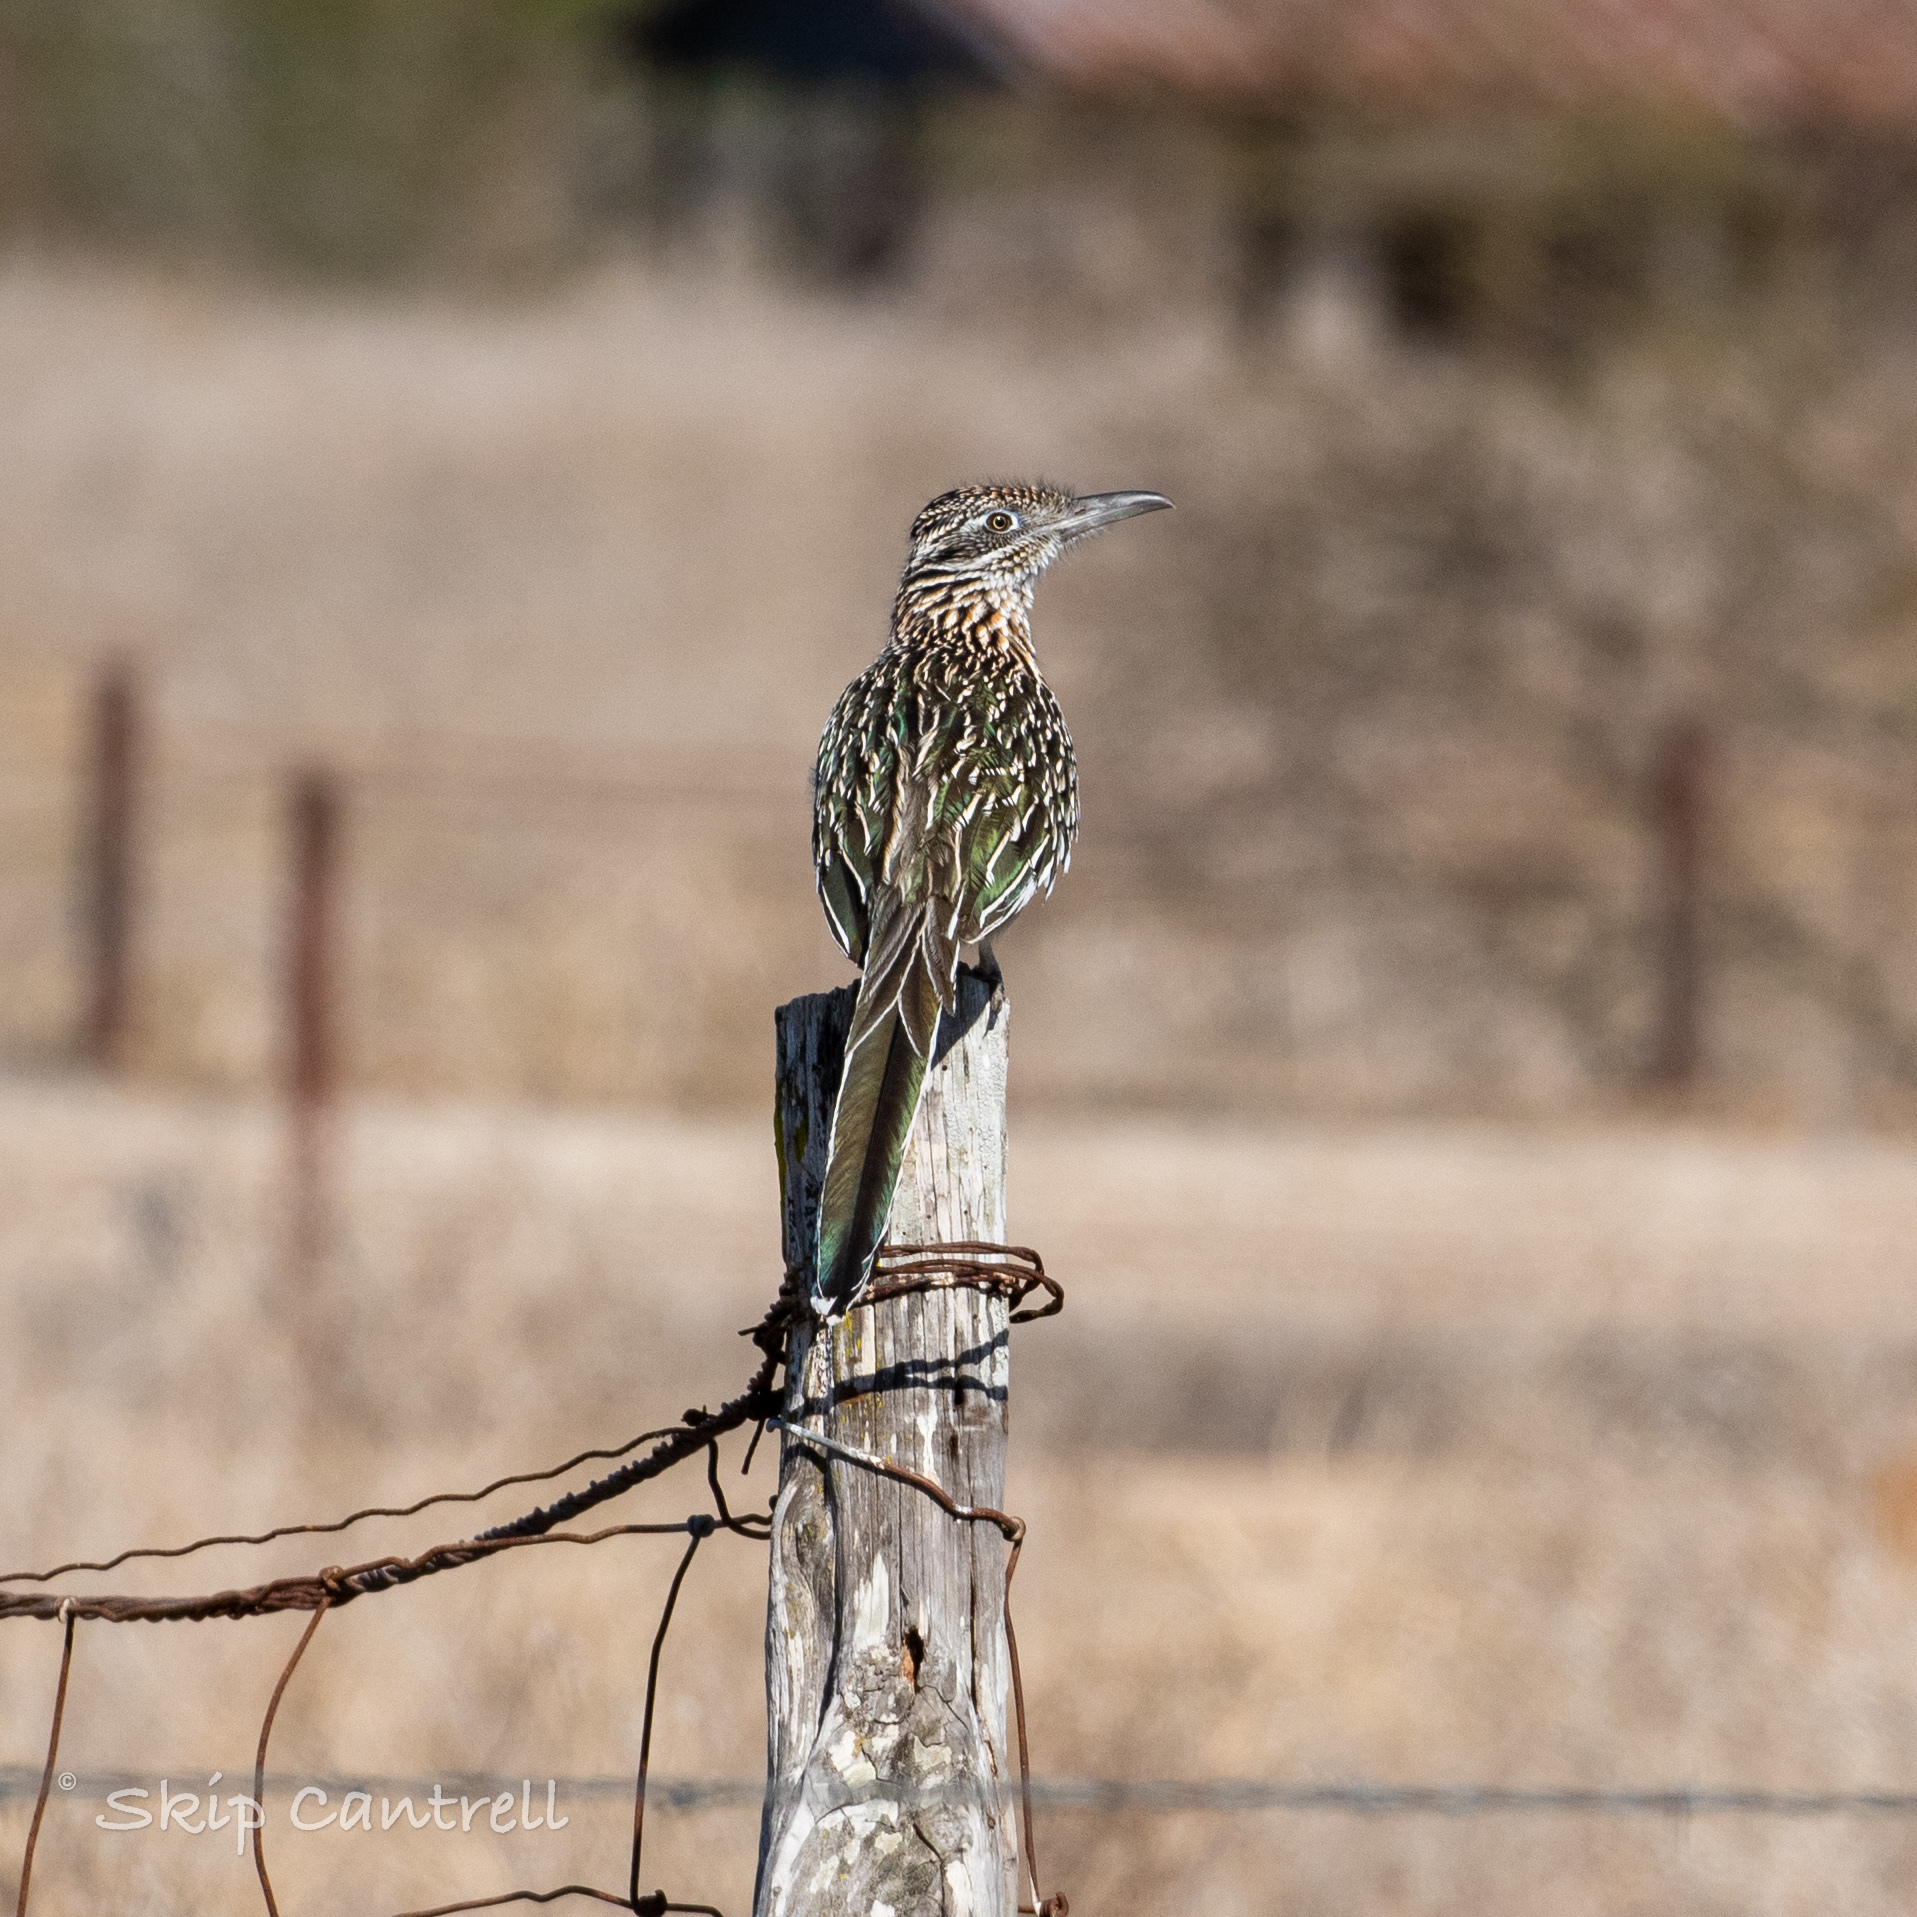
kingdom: Animalia
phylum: Chordata
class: Aves
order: Cuculiformes
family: Cuculidae
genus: Geococcyx
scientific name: Geococcyx californianus
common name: Greater roadrunner
